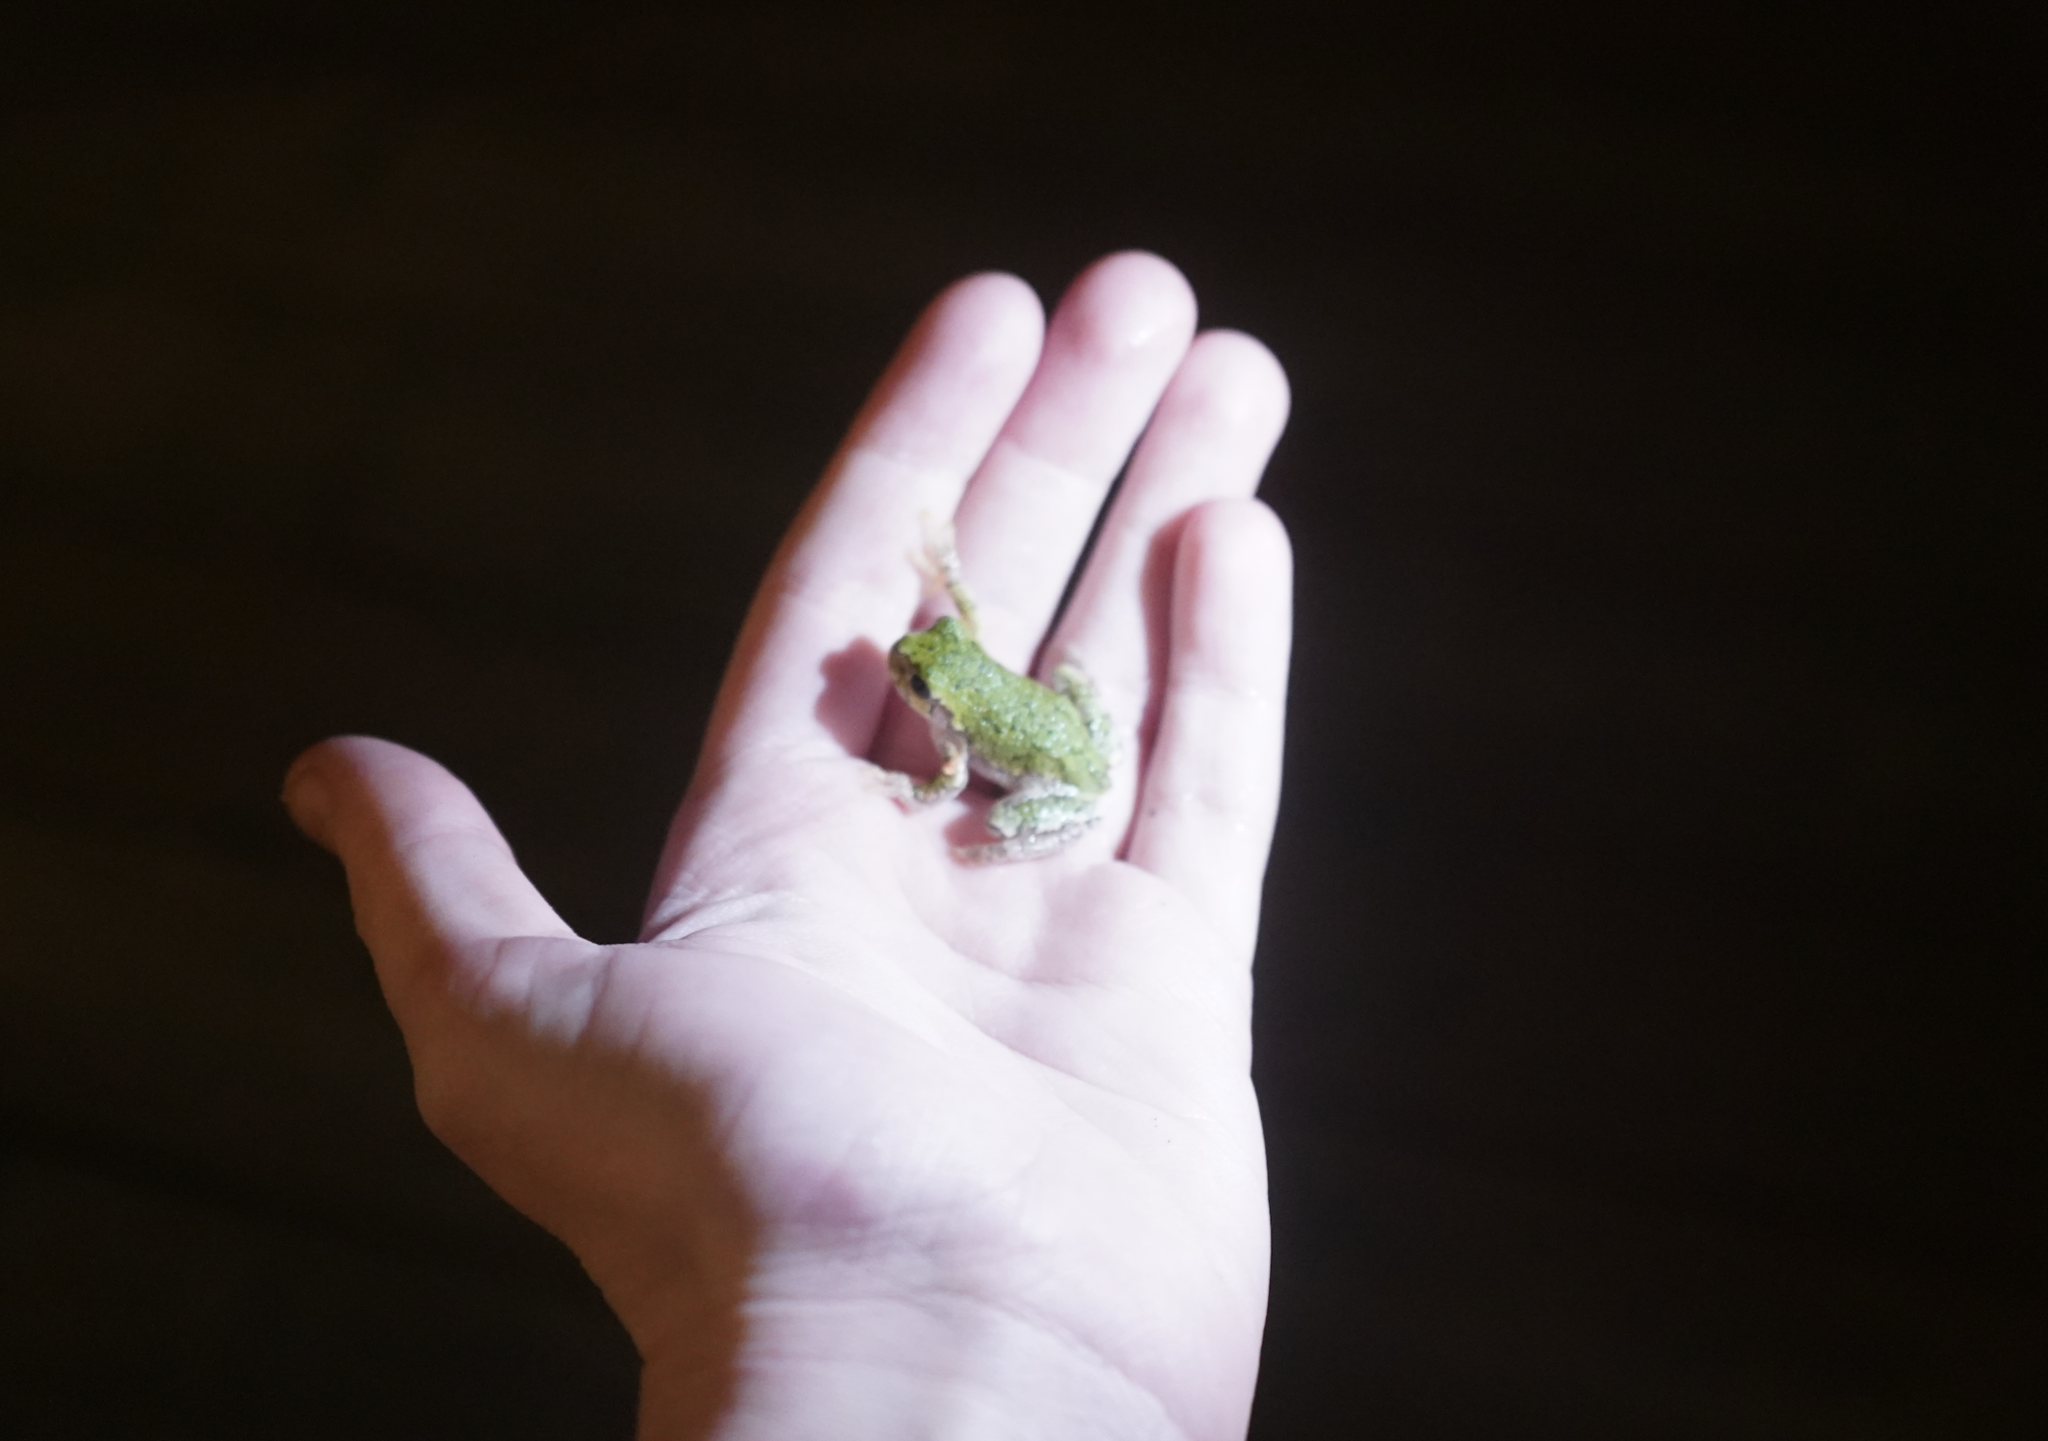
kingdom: Animalia
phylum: Chordata
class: Amphibia
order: Anura
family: Hylidae
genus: Dryophytes
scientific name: Dryophytes versicolor
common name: Gray treefrog
